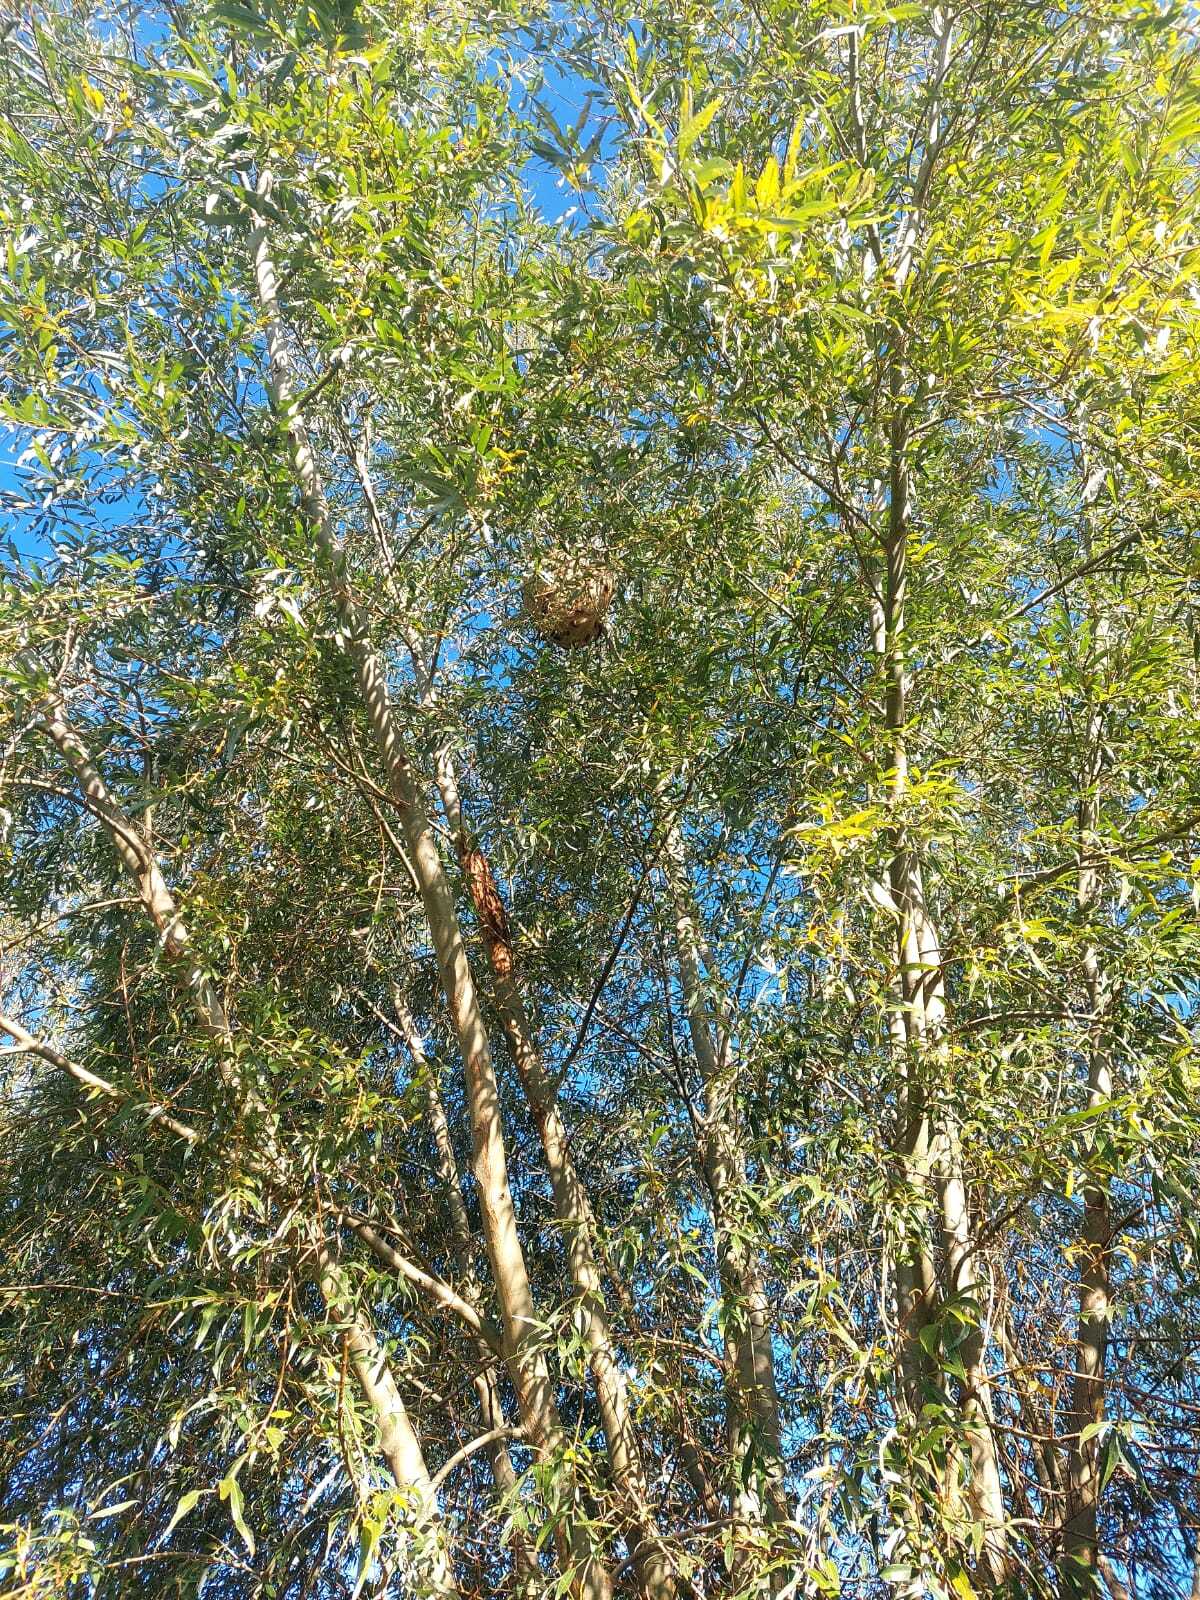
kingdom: Animalia
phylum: Arthropoda
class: Insecta
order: Hymenoptera
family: Vespidae
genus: Vespa
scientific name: Vespa velutina
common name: Asian hornet
